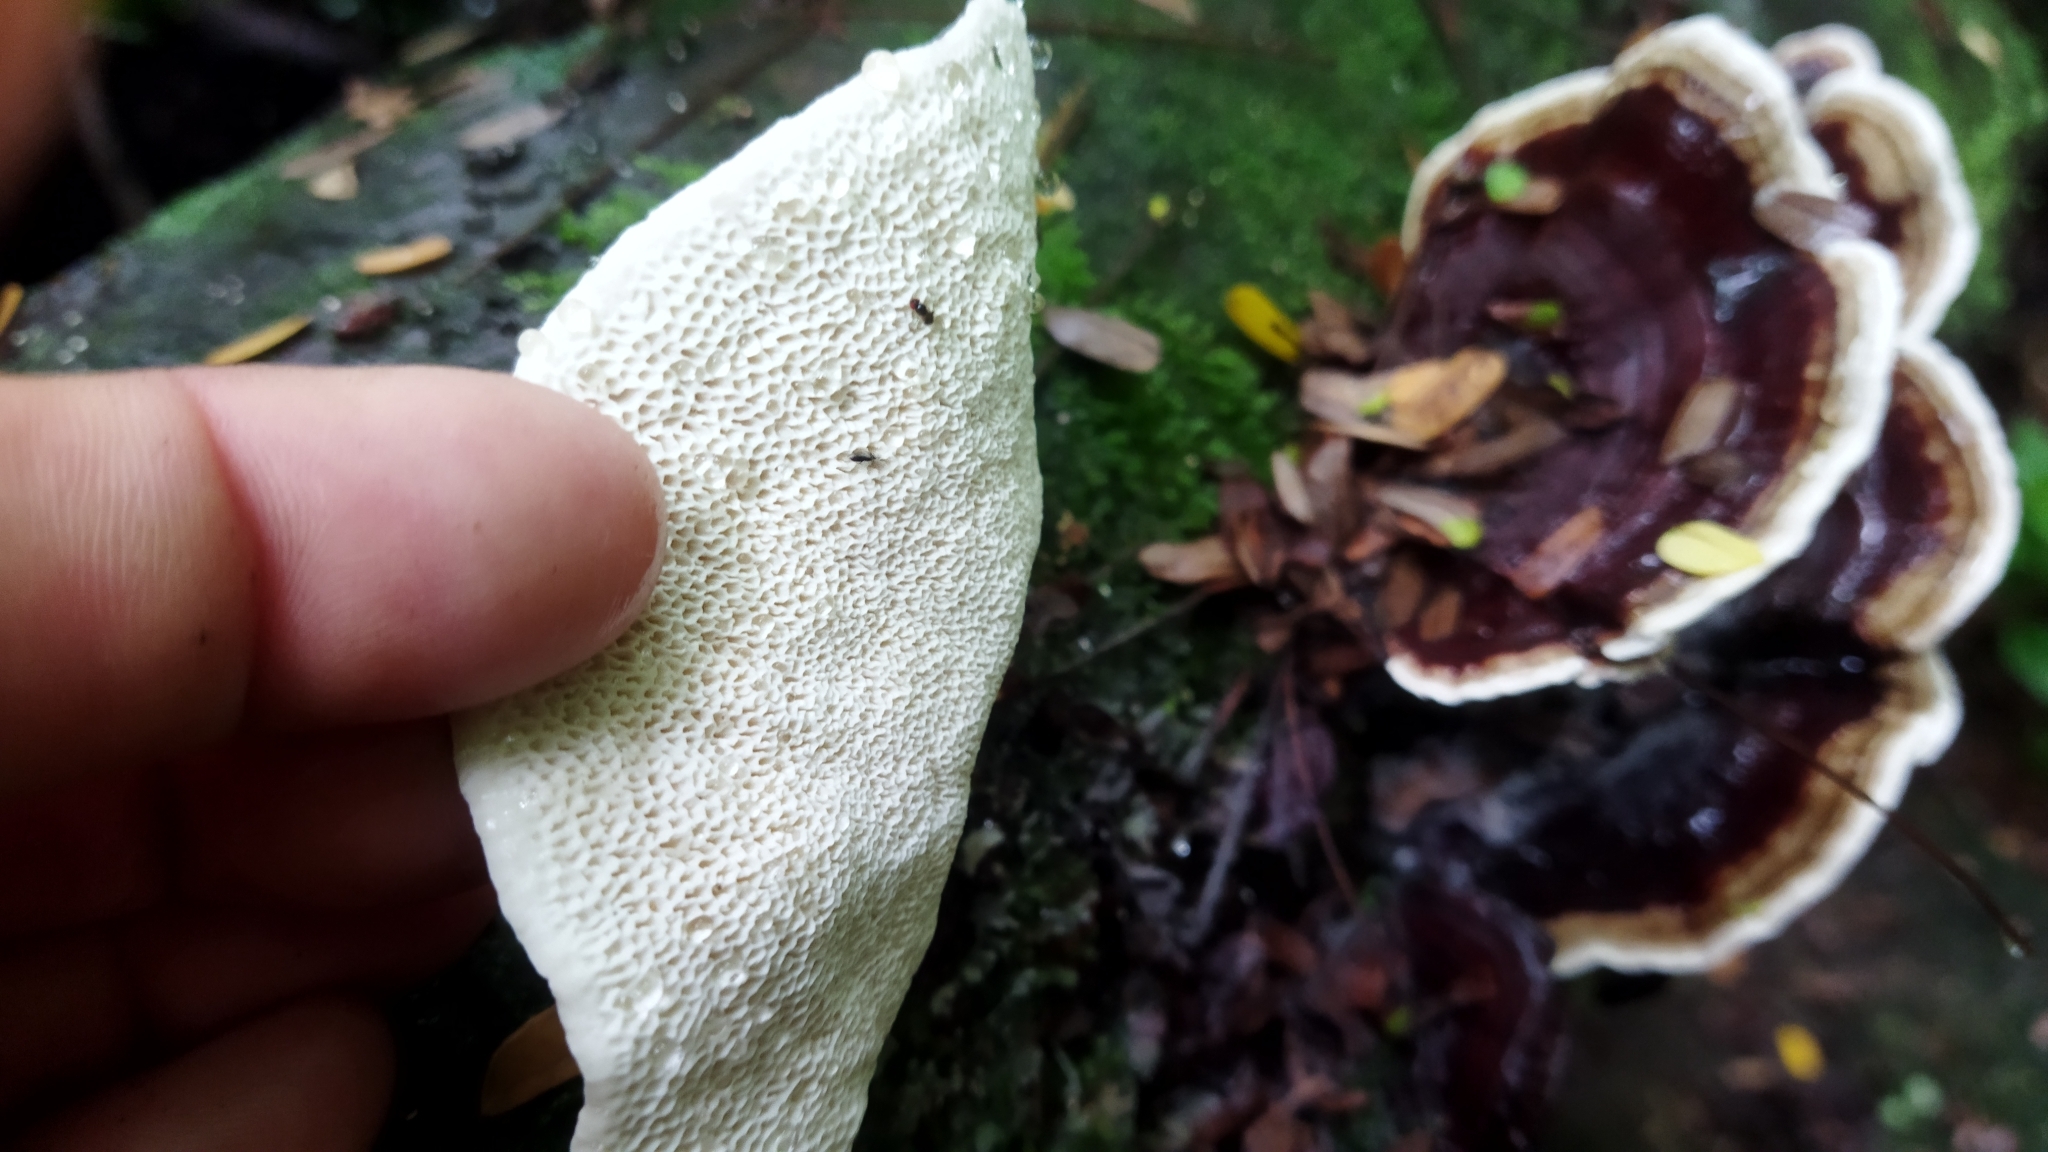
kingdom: Fungi
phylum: Basidiomycota
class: Agaricomycetes
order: Polyporales
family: Polyporaceae
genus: Earliella
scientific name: Earliella scabrosa
